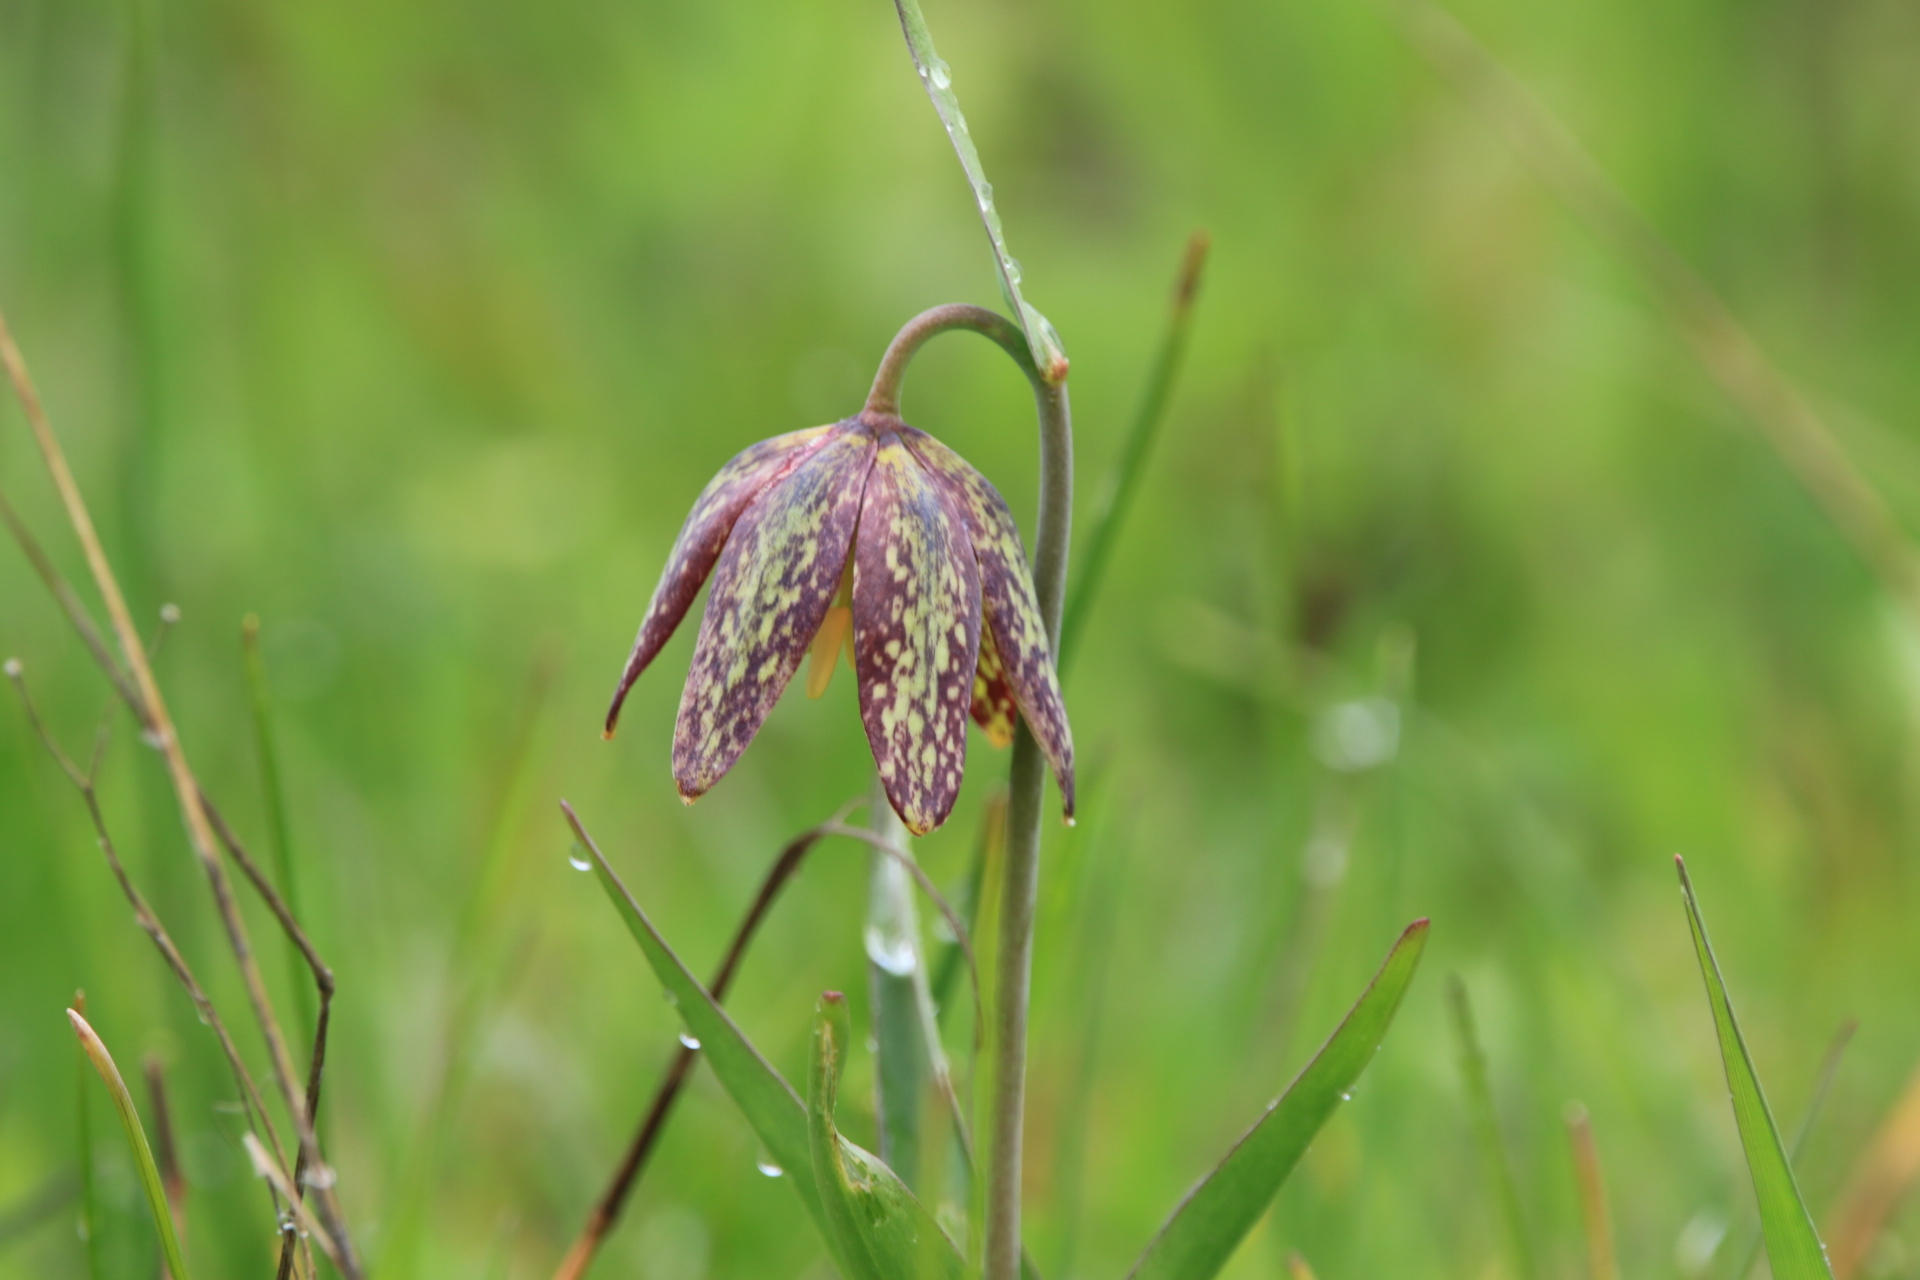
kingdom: Plantae
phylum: Tracheophyta
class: Liliopsida
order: Liliales
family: Liliaceae
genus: Fritillaria
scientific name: Fritillaria affinis
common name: Ojai fritillary
